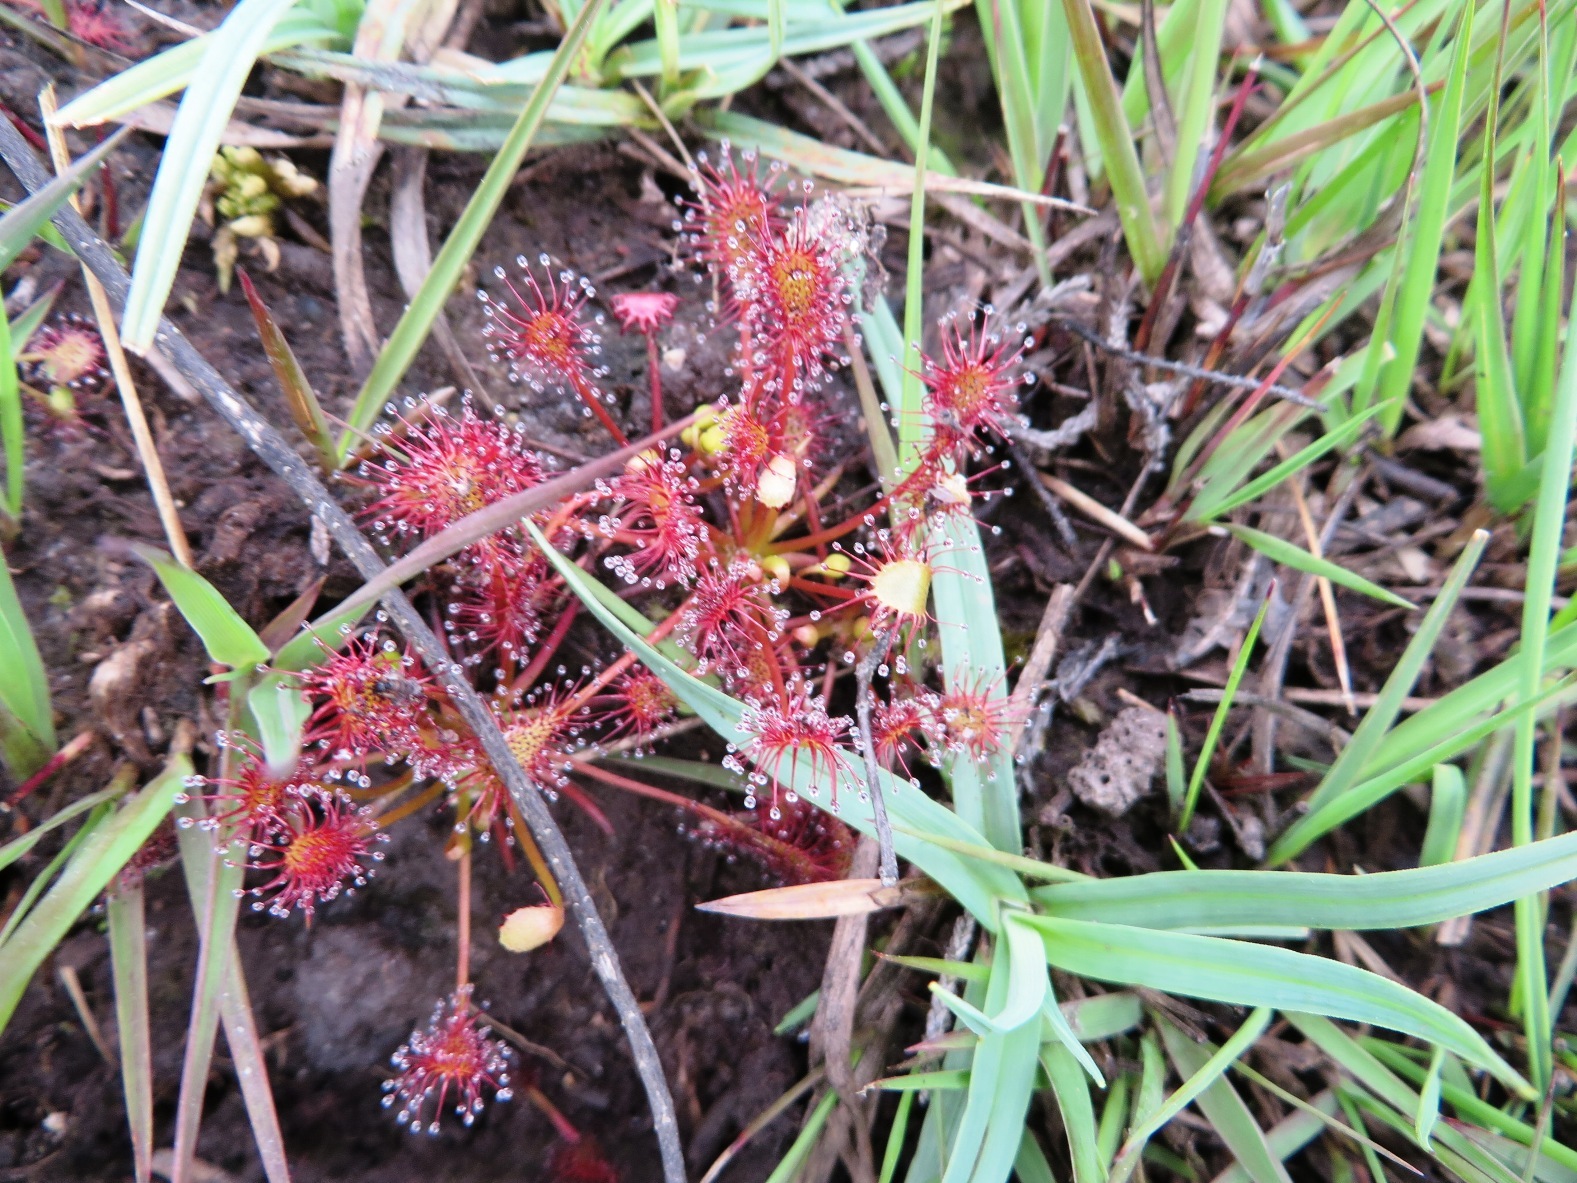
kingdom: Plantae
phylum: Tracheophyta
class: Magnoliopsida
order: Caryophyllales
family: Droseraceae
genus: Drosera
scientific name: Drosera intermedia
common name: Oblong-leaved sundew
